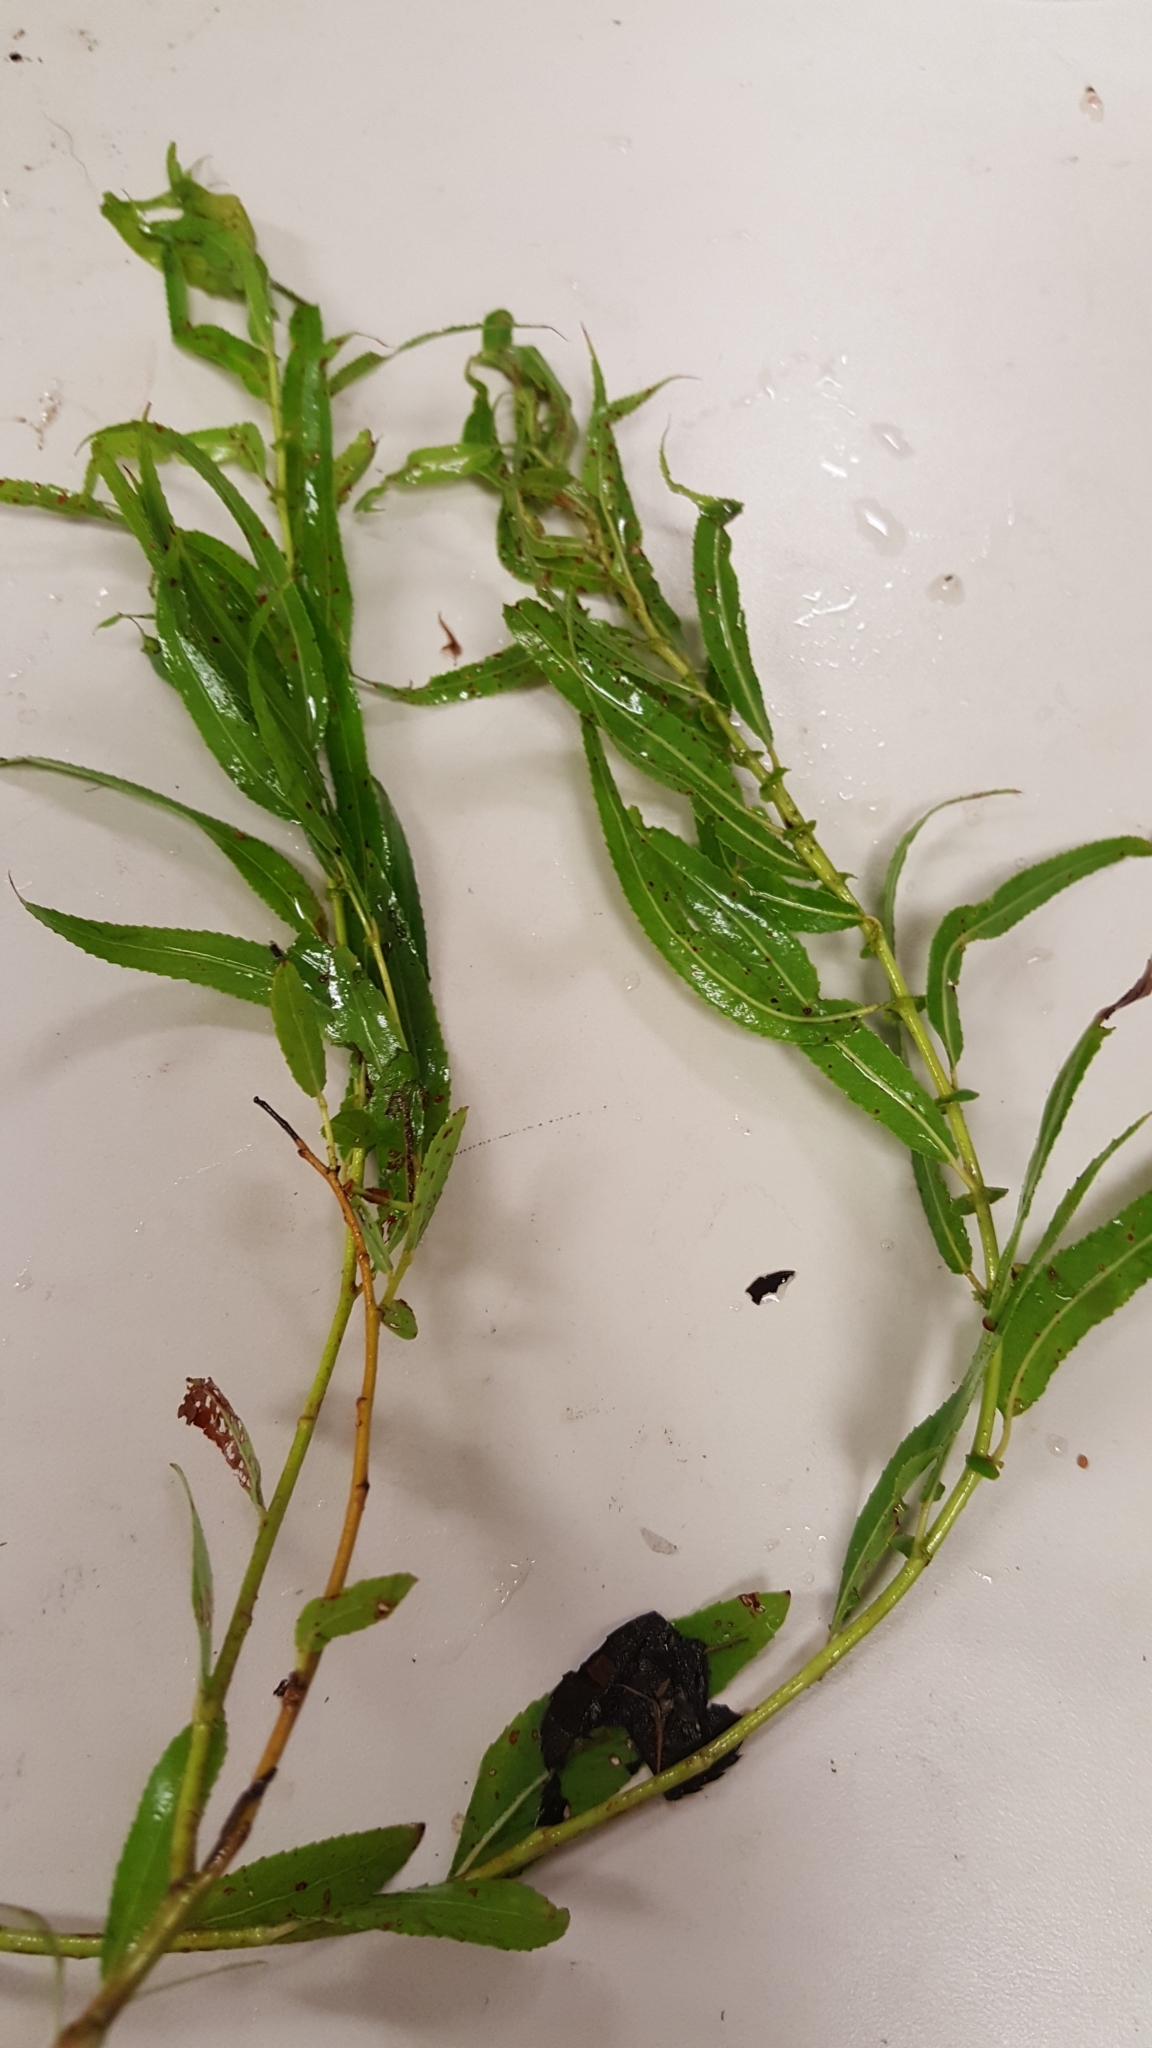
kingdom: Plantae
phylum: Tracheophyta
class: Magnoliopsida
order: Malpighiales
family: Salicaceae
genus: Salix
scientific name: Salix nigra
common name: Black willow
